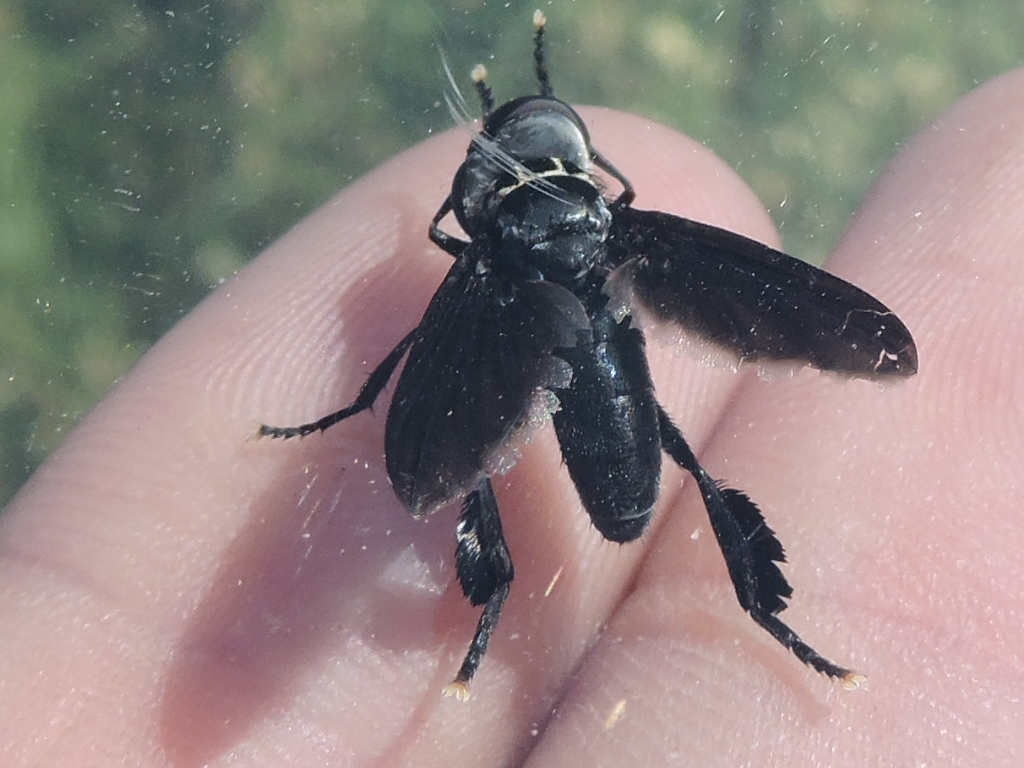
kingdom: Animalia
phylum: Arthropoda
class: Insecta
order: Diptera
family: Tachinidae
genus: Trichopoda
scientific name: Trichopoda lanipes
